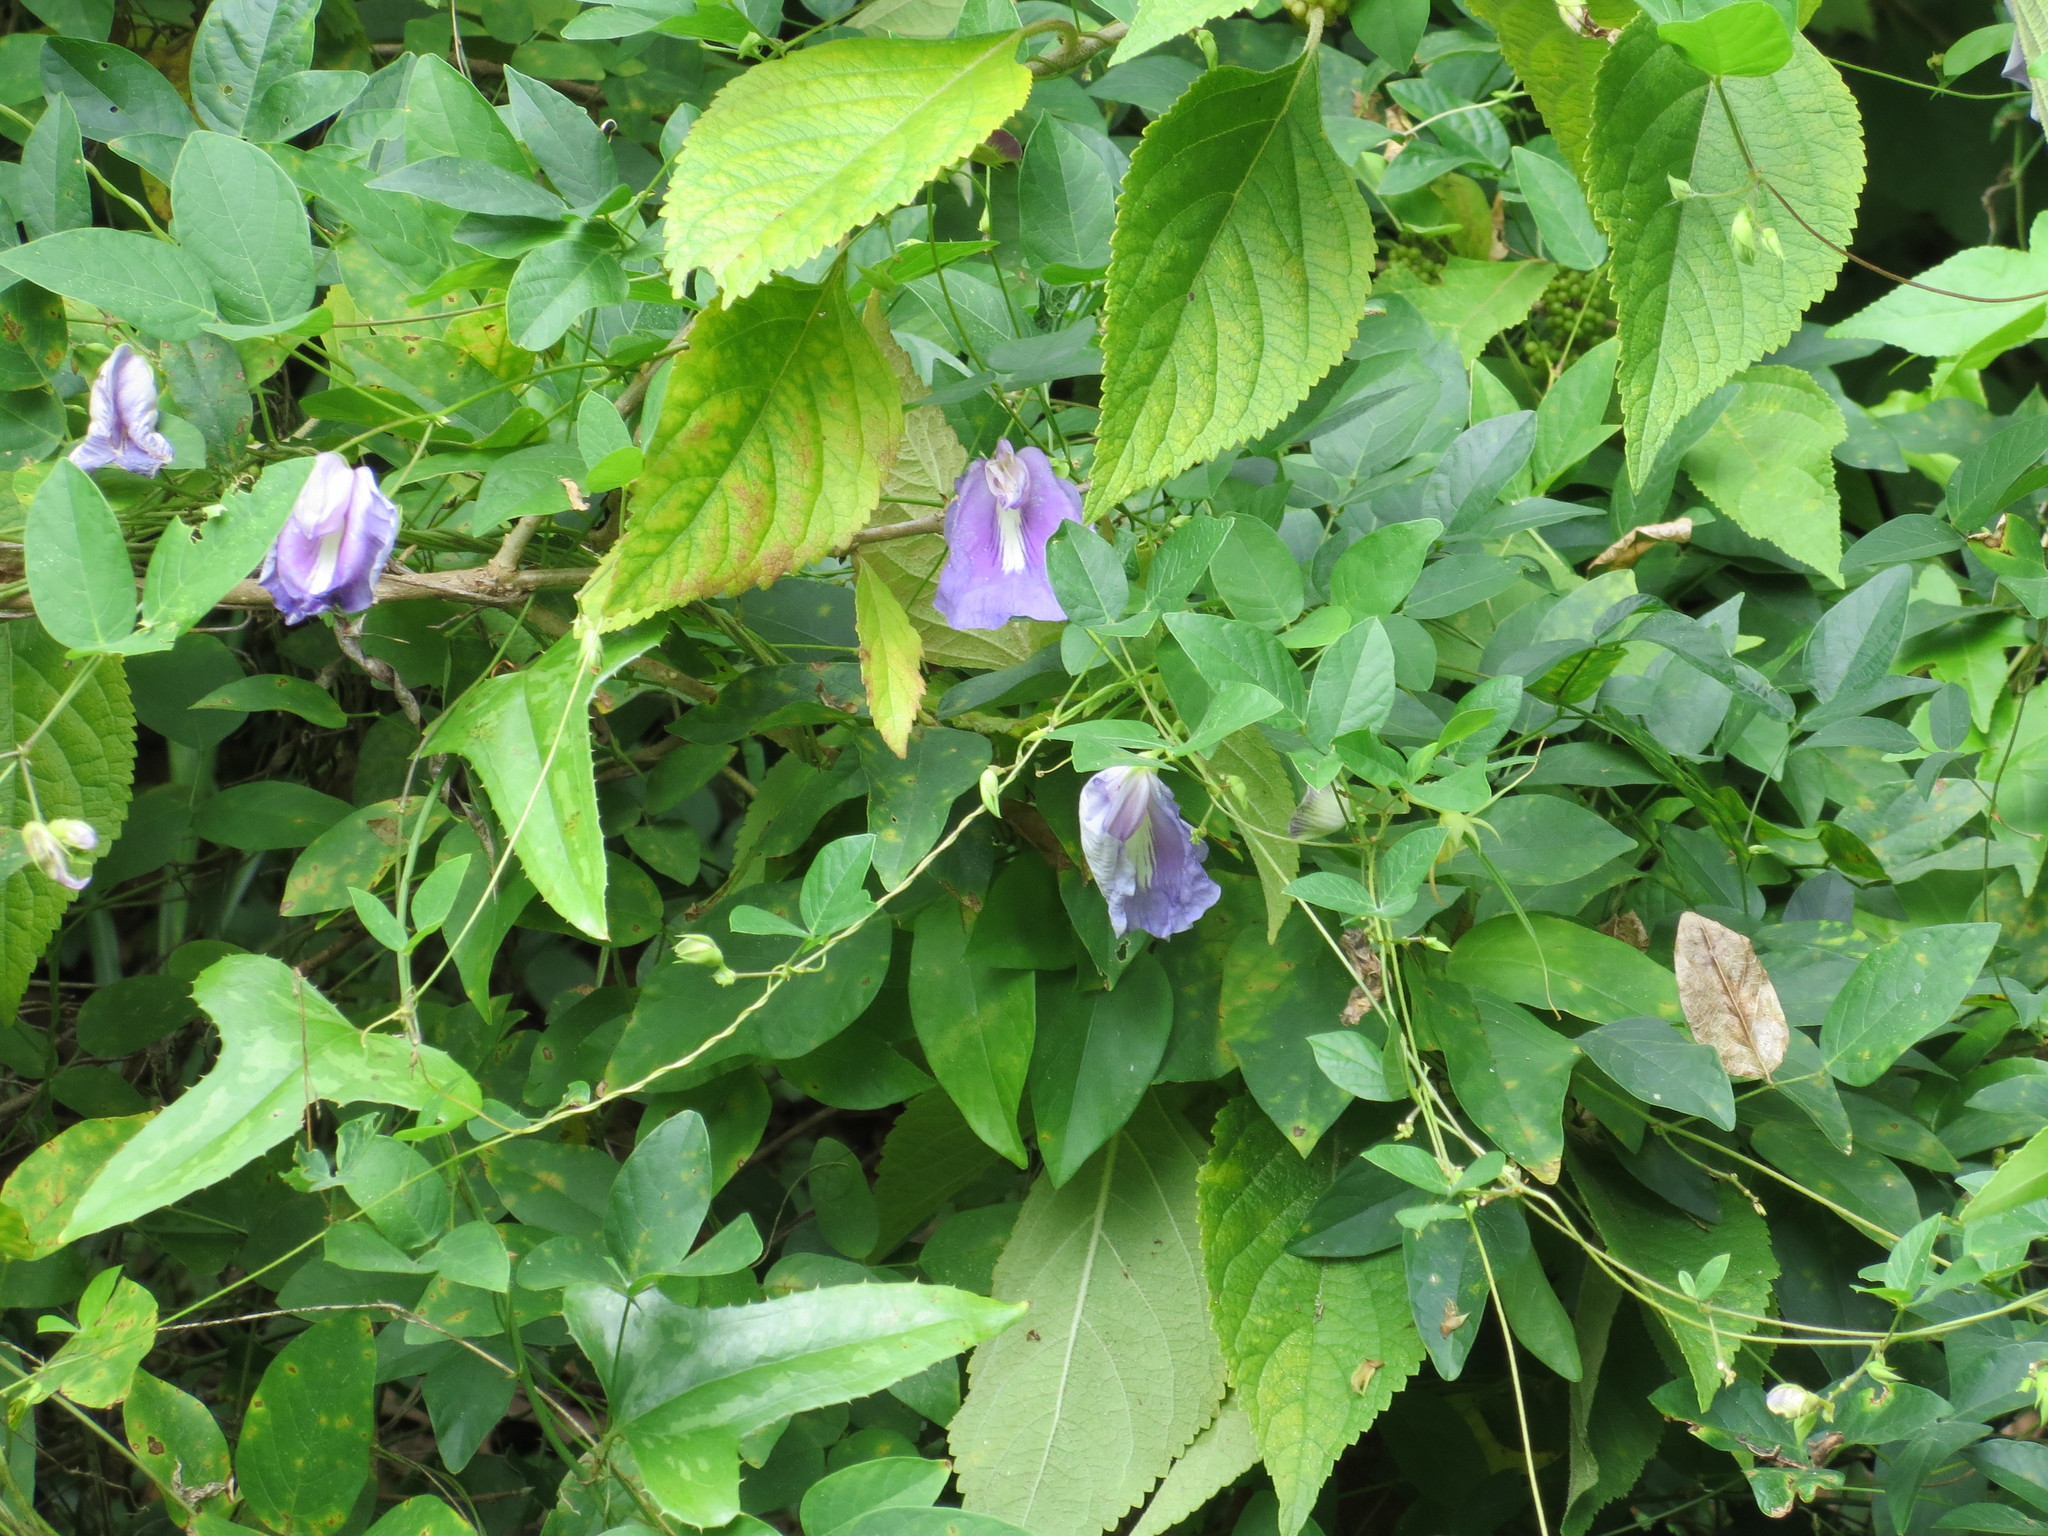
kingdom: Plantae
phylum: Tracheophyta
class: Magnoliopsida
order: Fabales
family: Fabaceae
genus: Centrosema
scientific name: Centrosema virginianum
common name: Butterfly-pea
